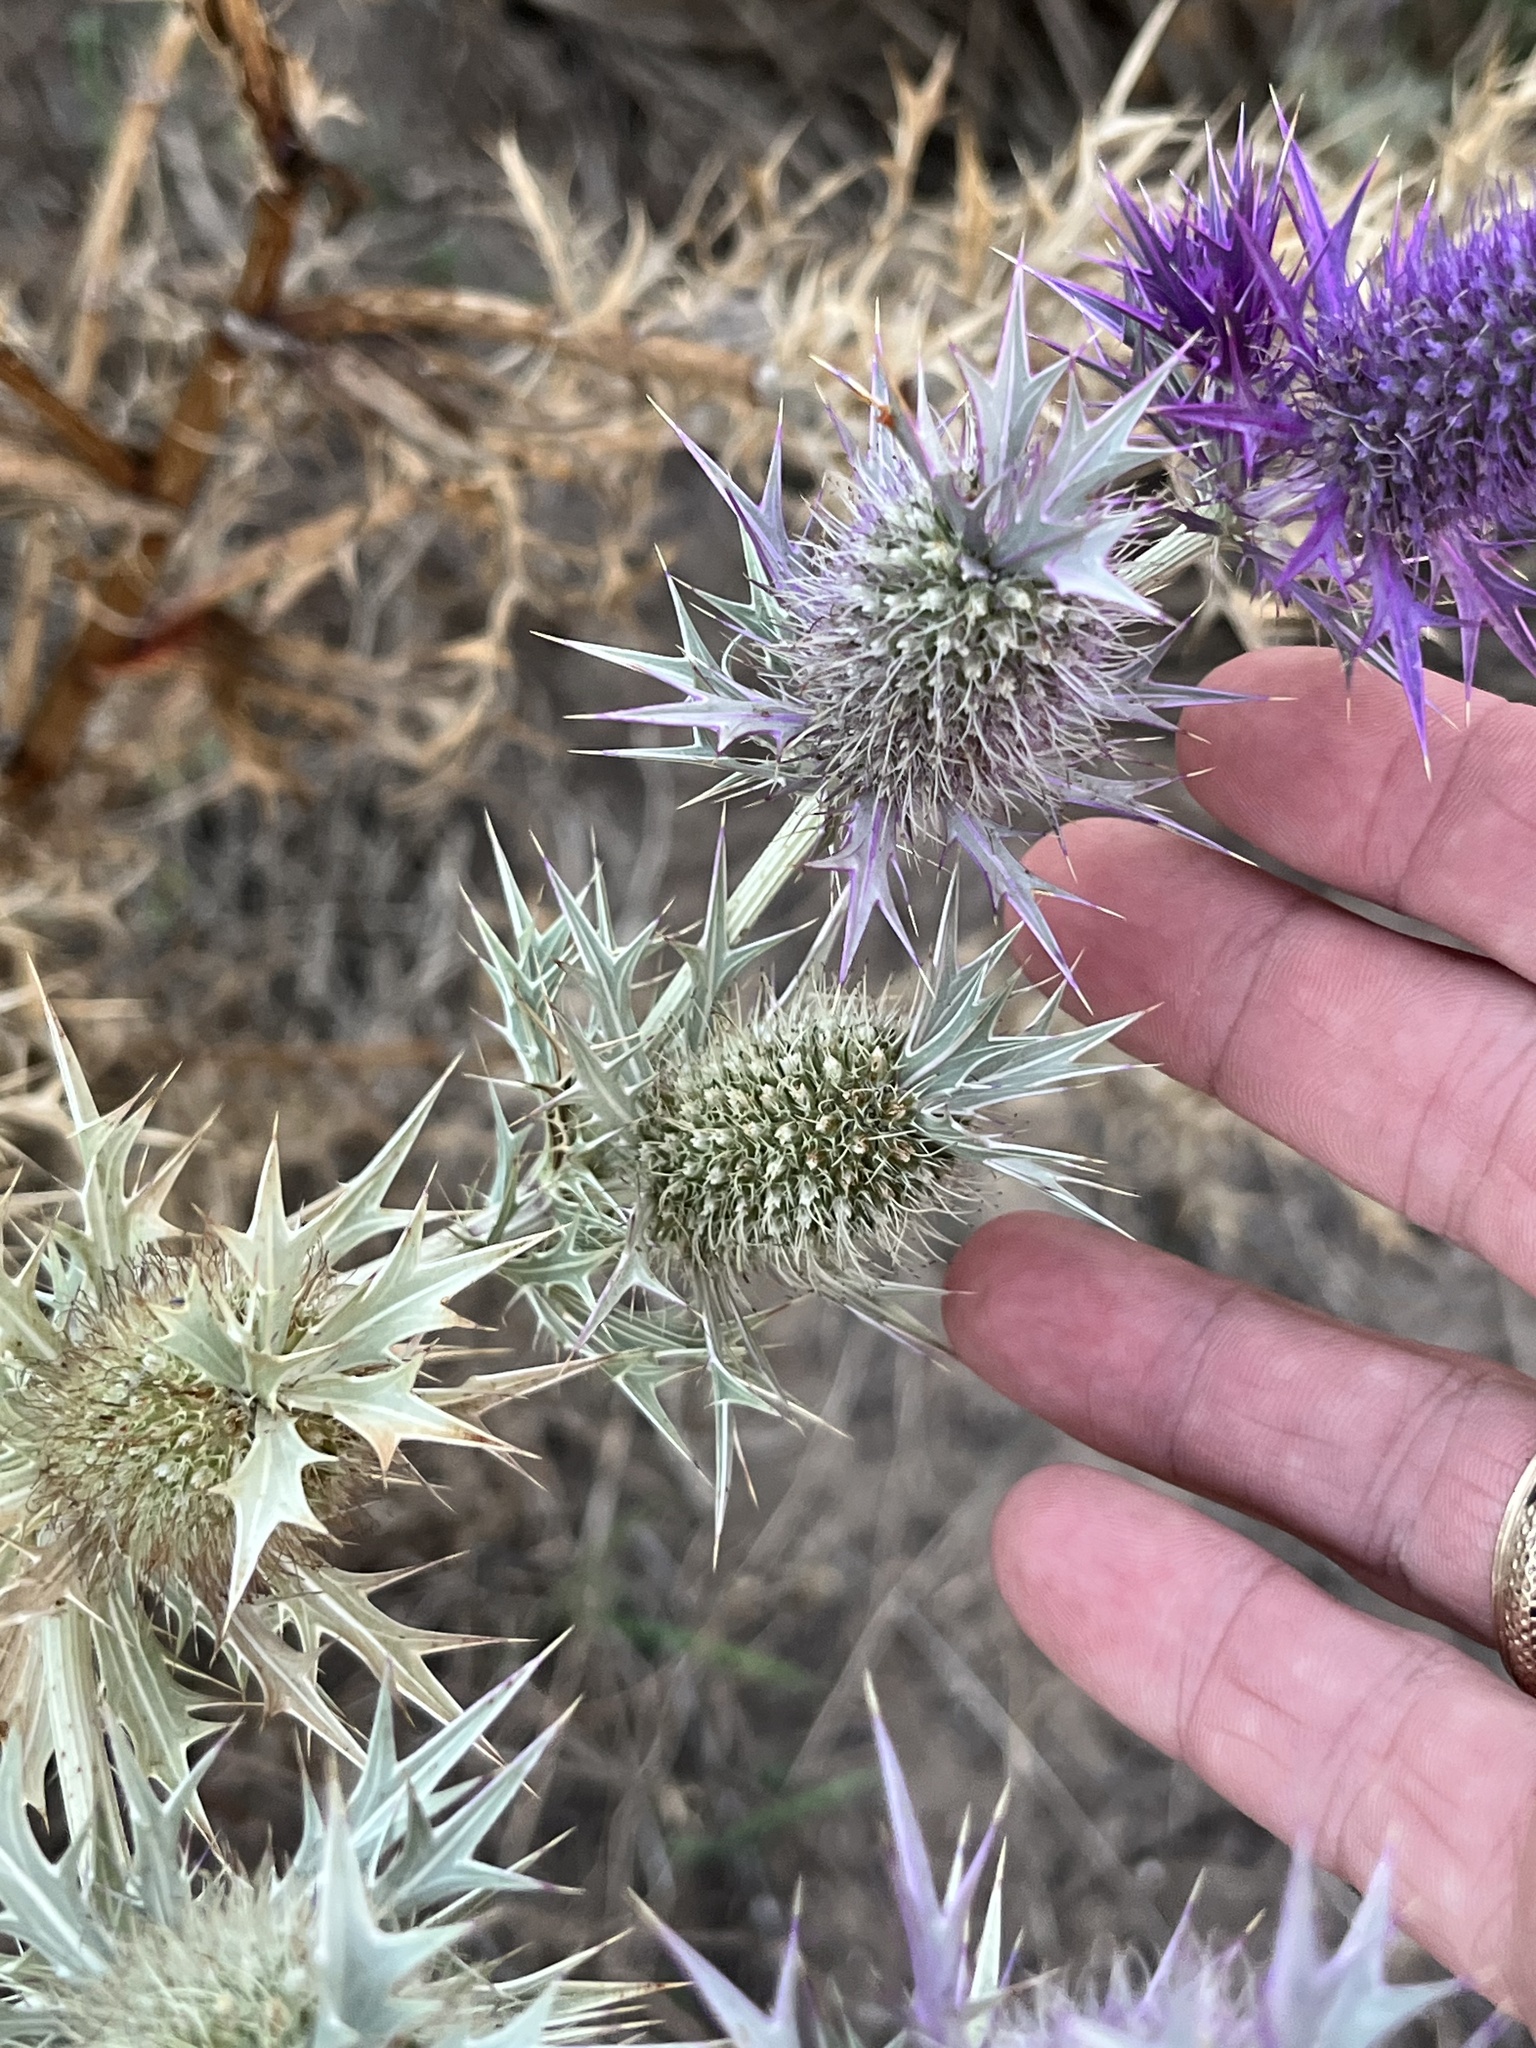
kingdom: Plantae
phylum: Tracheophyta
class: Magnoliopsida
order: Apiales
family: Apiaceae
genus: Eryngium
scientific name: Eryngium leavenworthii
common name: Leavenworth's eryngo
